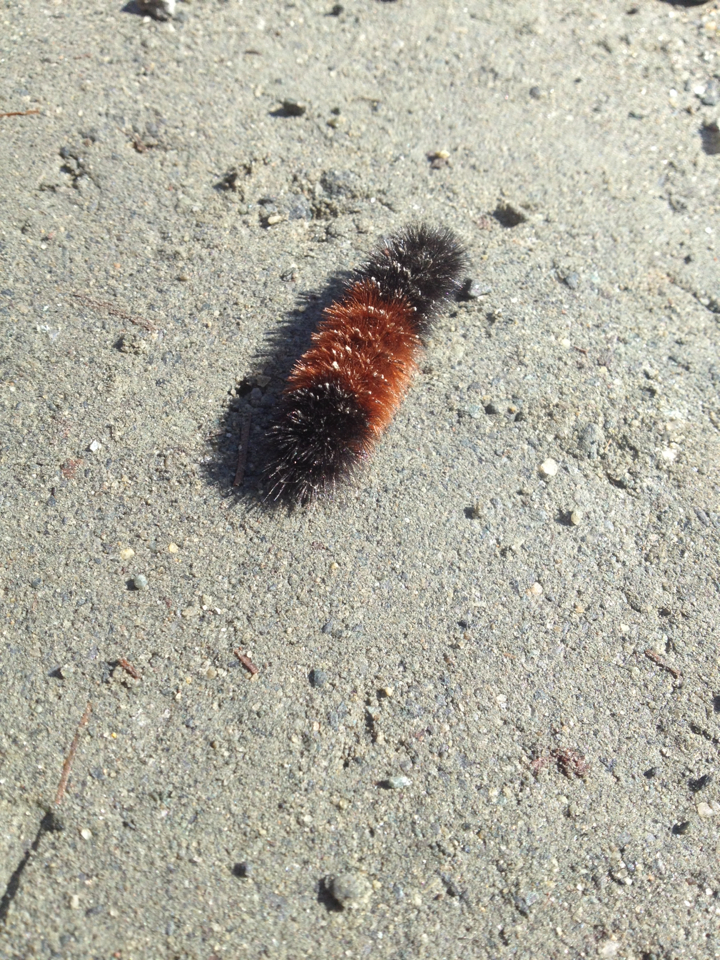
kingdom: Animalia
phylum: Arthropoda
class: Insecta
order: Lepidoptera
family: Erebidae
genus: Pyrrharctia
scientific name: Pyrrharctia isabella
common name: Isabella tiger moth
